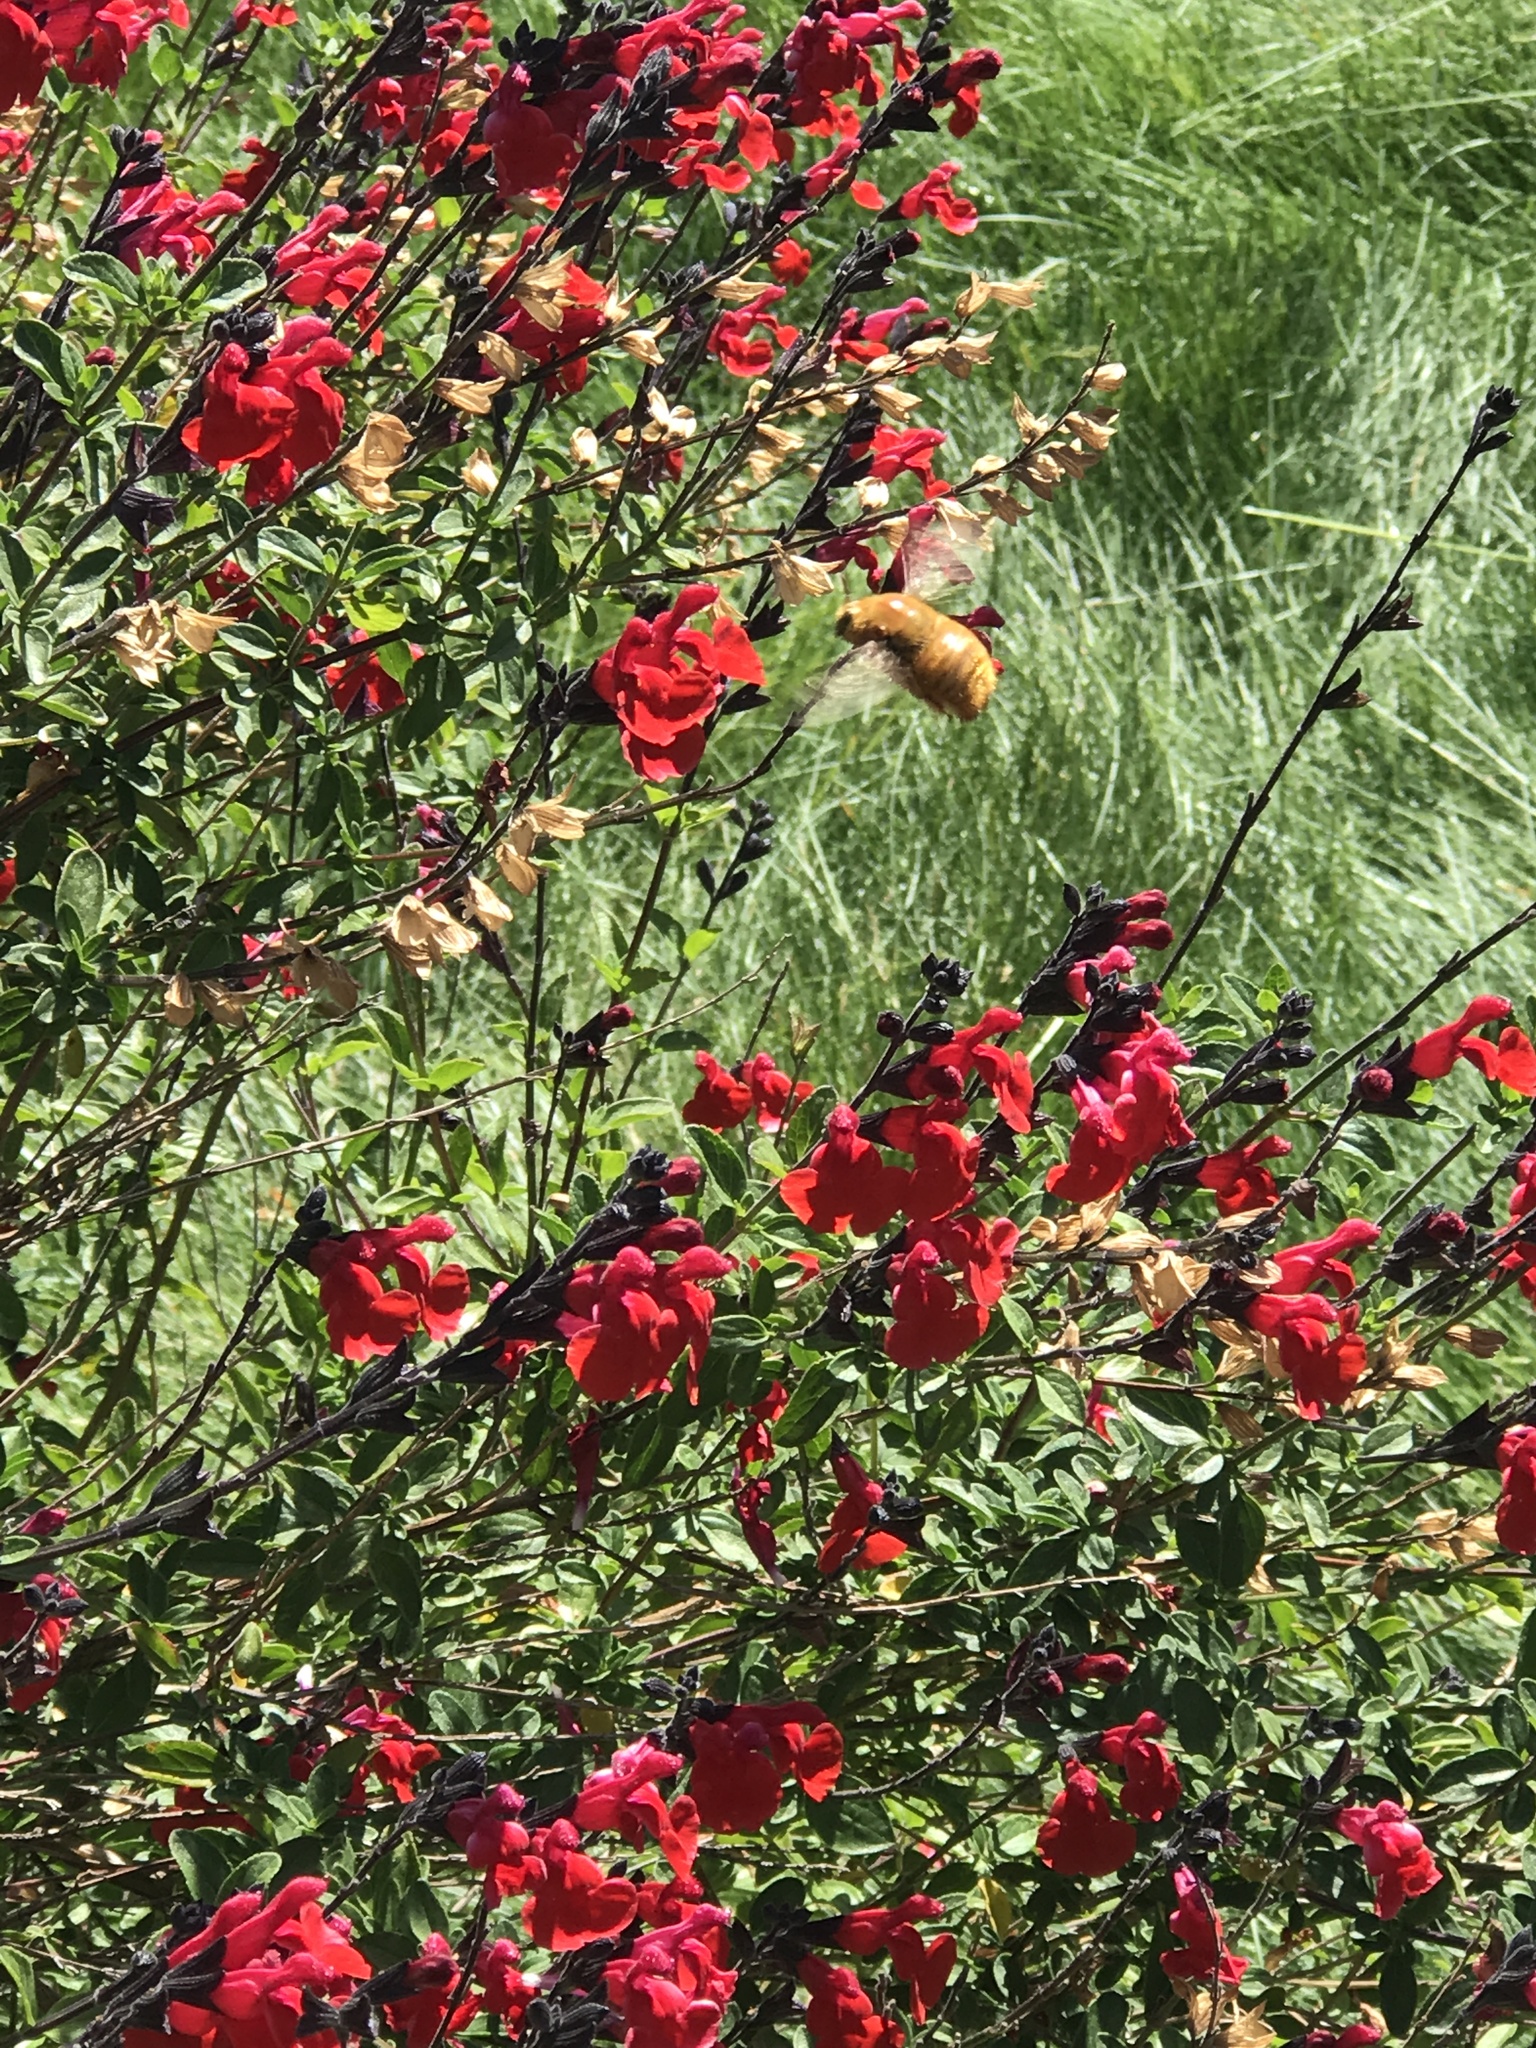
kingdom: Animalia
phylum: Arthropoda
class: Insecta
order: Hymenoptera
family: Apidae
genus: Xylocopa
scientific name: Xylocopa sonorina
